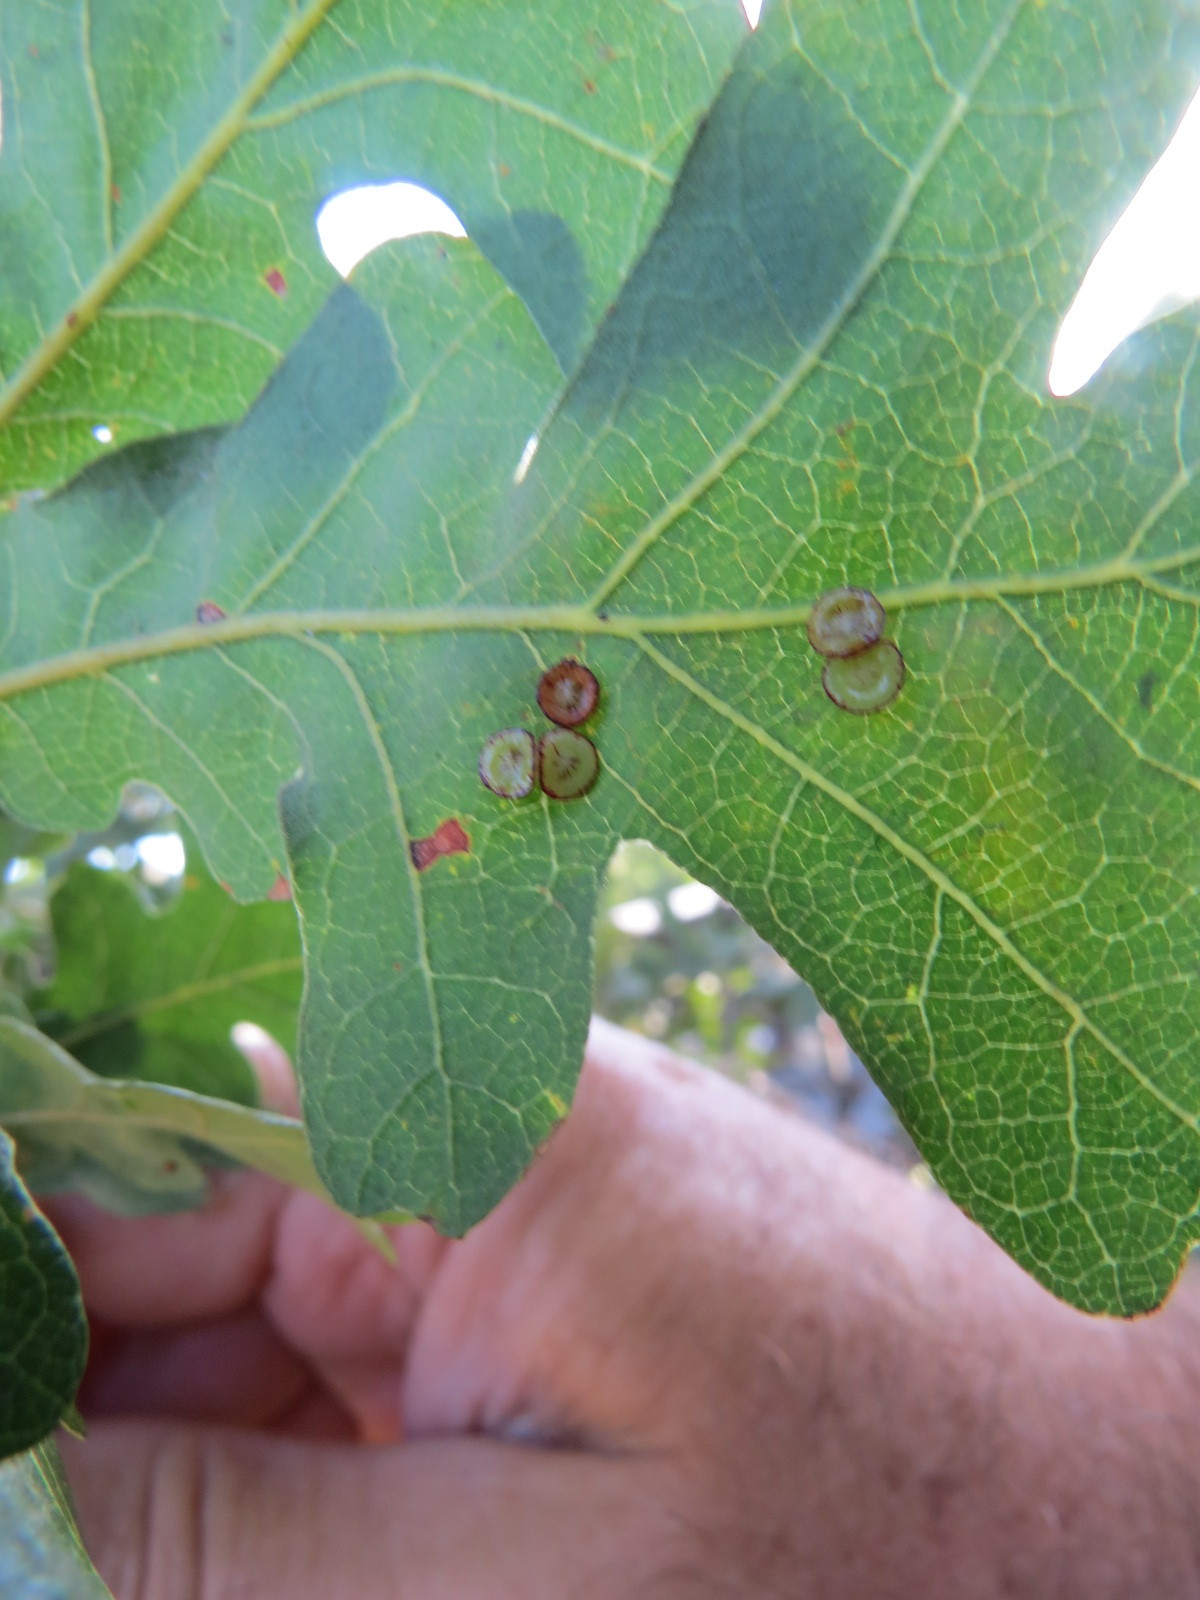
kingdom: Animalia
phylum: Arthropoda
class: Insecta
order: Hymenoptera
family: Cynipidae
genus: Andricus
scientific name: Andricus
